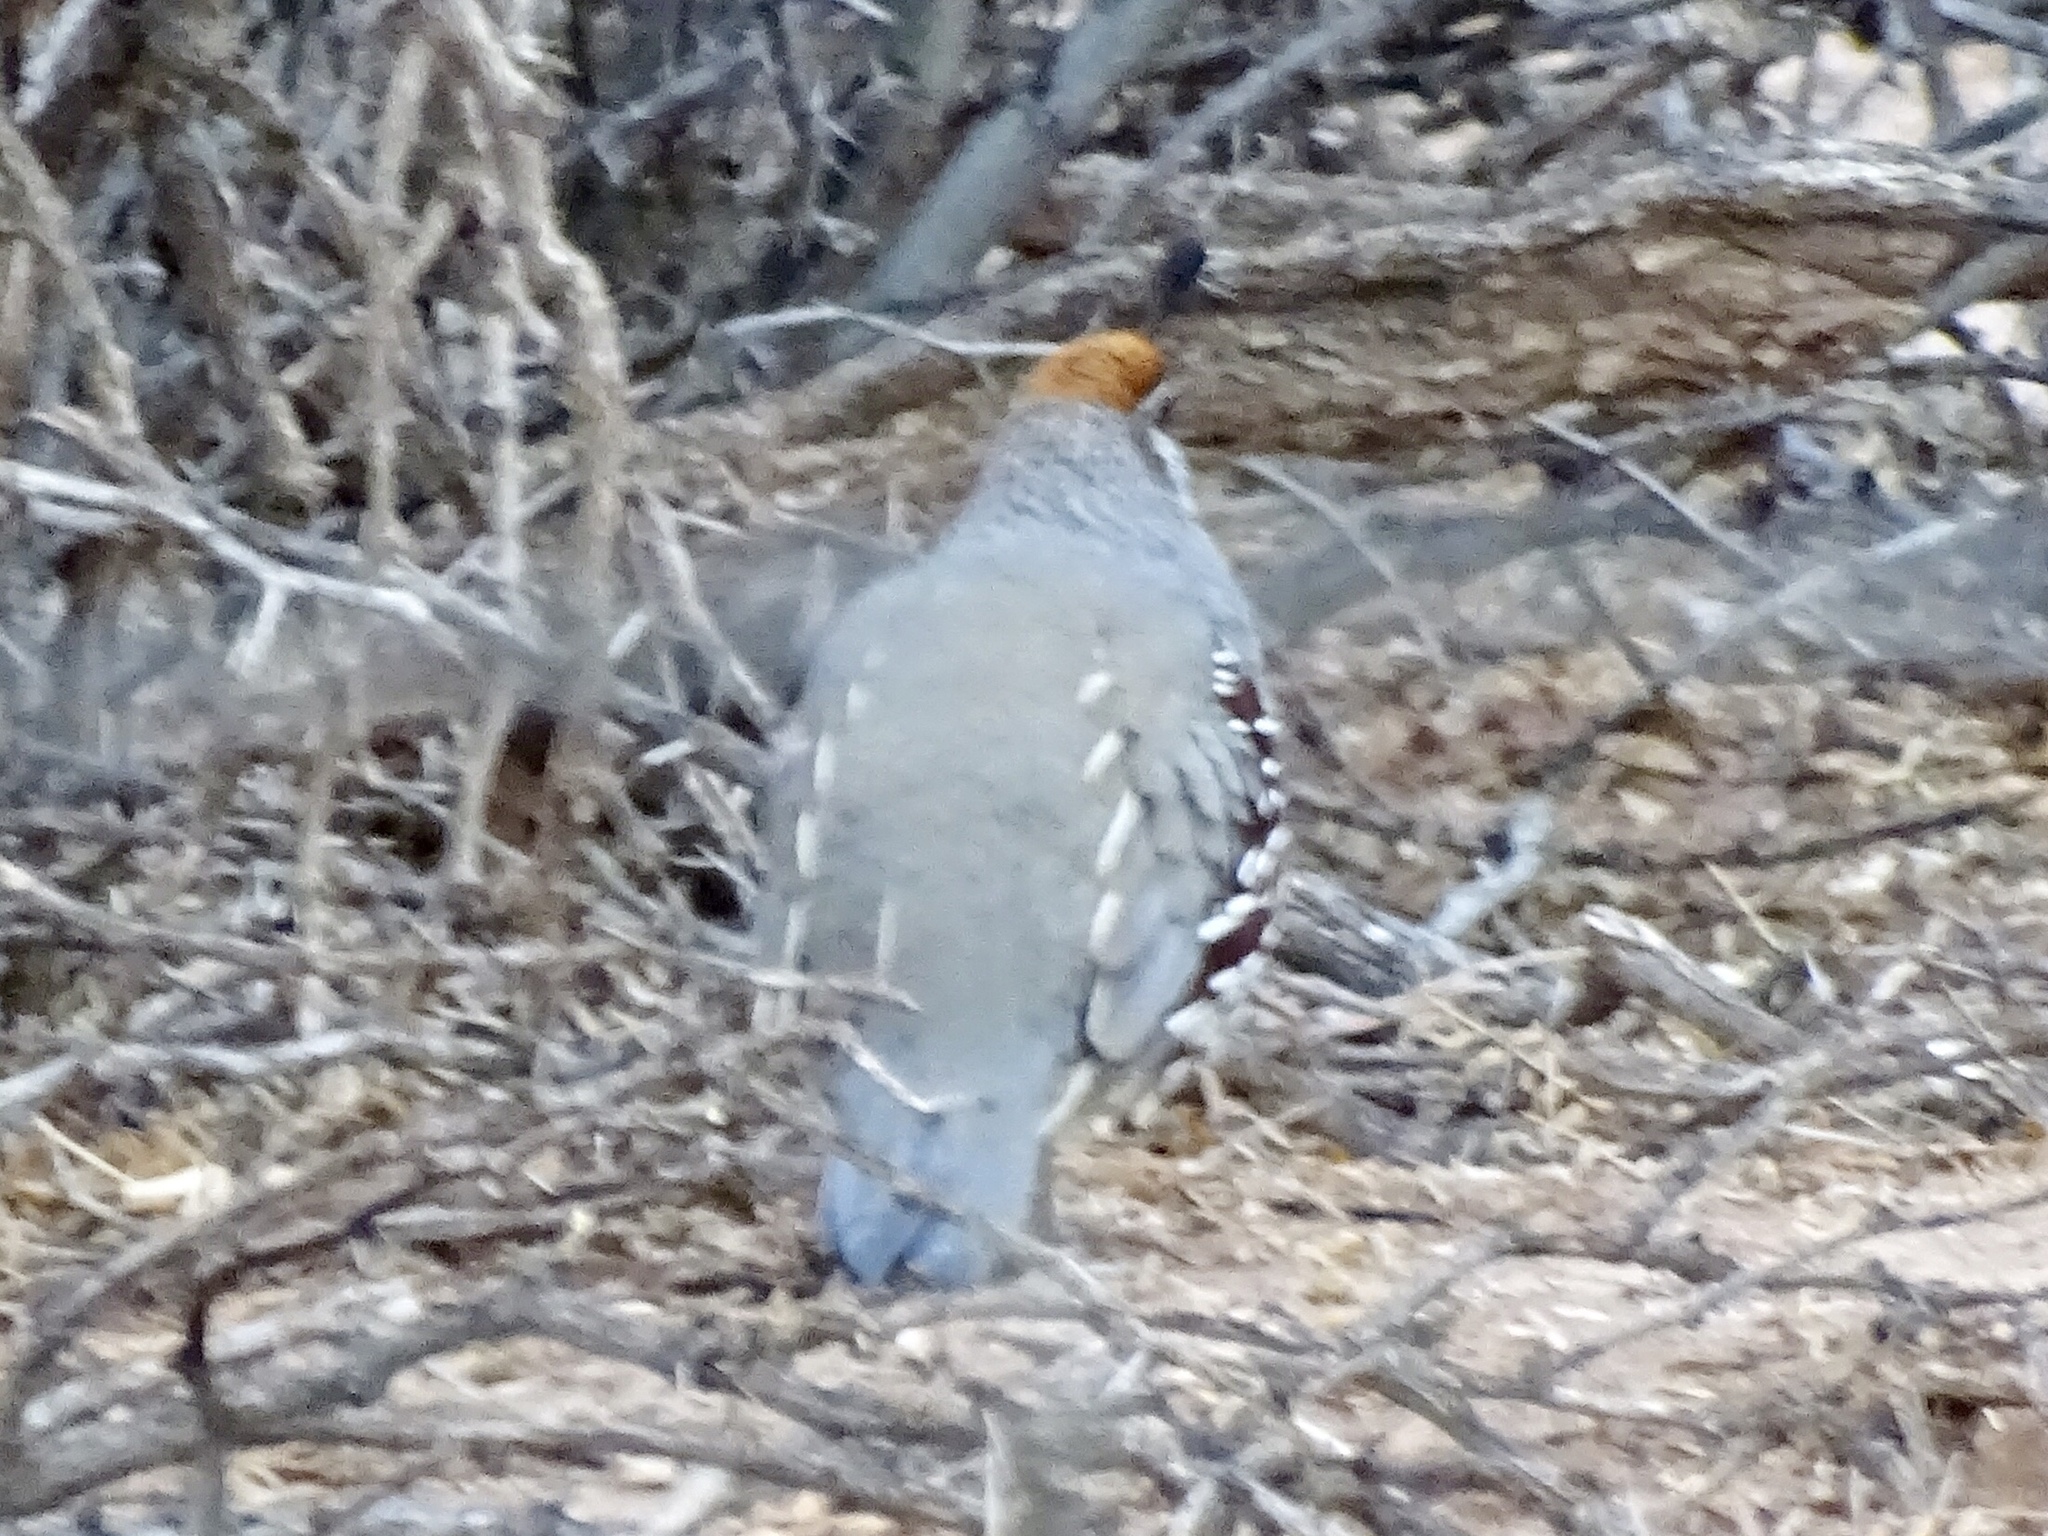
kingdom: Animalia
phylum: Chordata
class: Aves
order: Galliformes
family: Odontophoridae
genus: Callipepla
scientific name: Callipepla gambelii
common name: Gambel's quail
